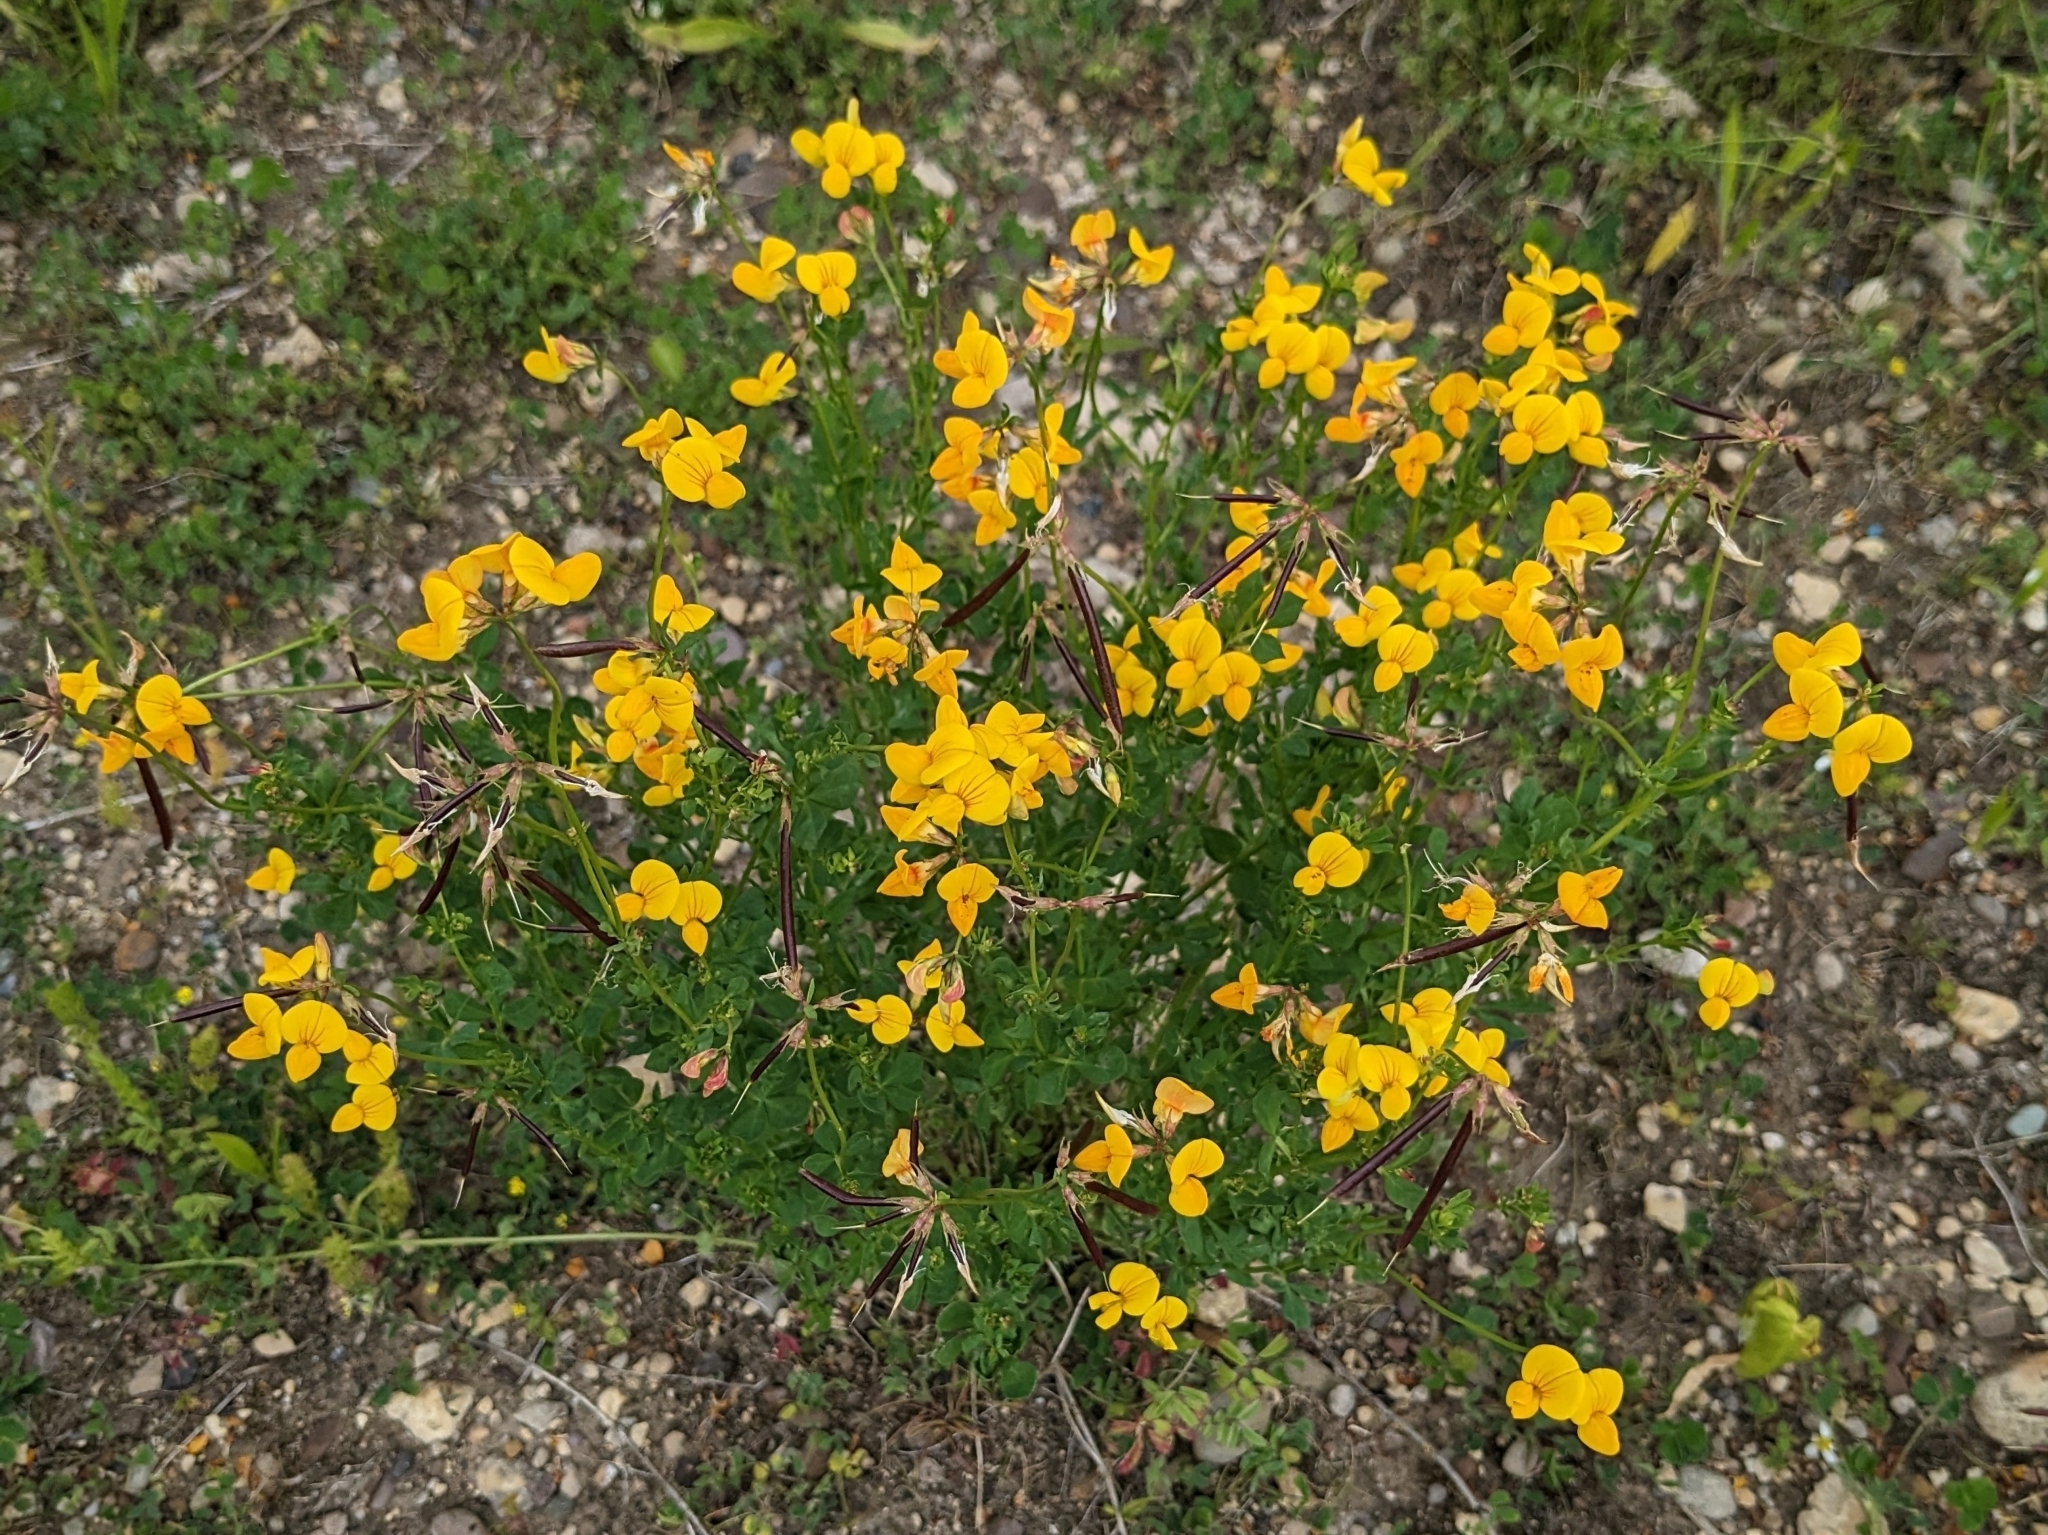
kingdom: Plantae
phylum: Tracheophyta
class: Magnoliopsida
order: Fabales
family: Fabaceae
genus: Lotus
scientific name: Lotus corniculatus
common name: Common bird's-foot-trefoil
